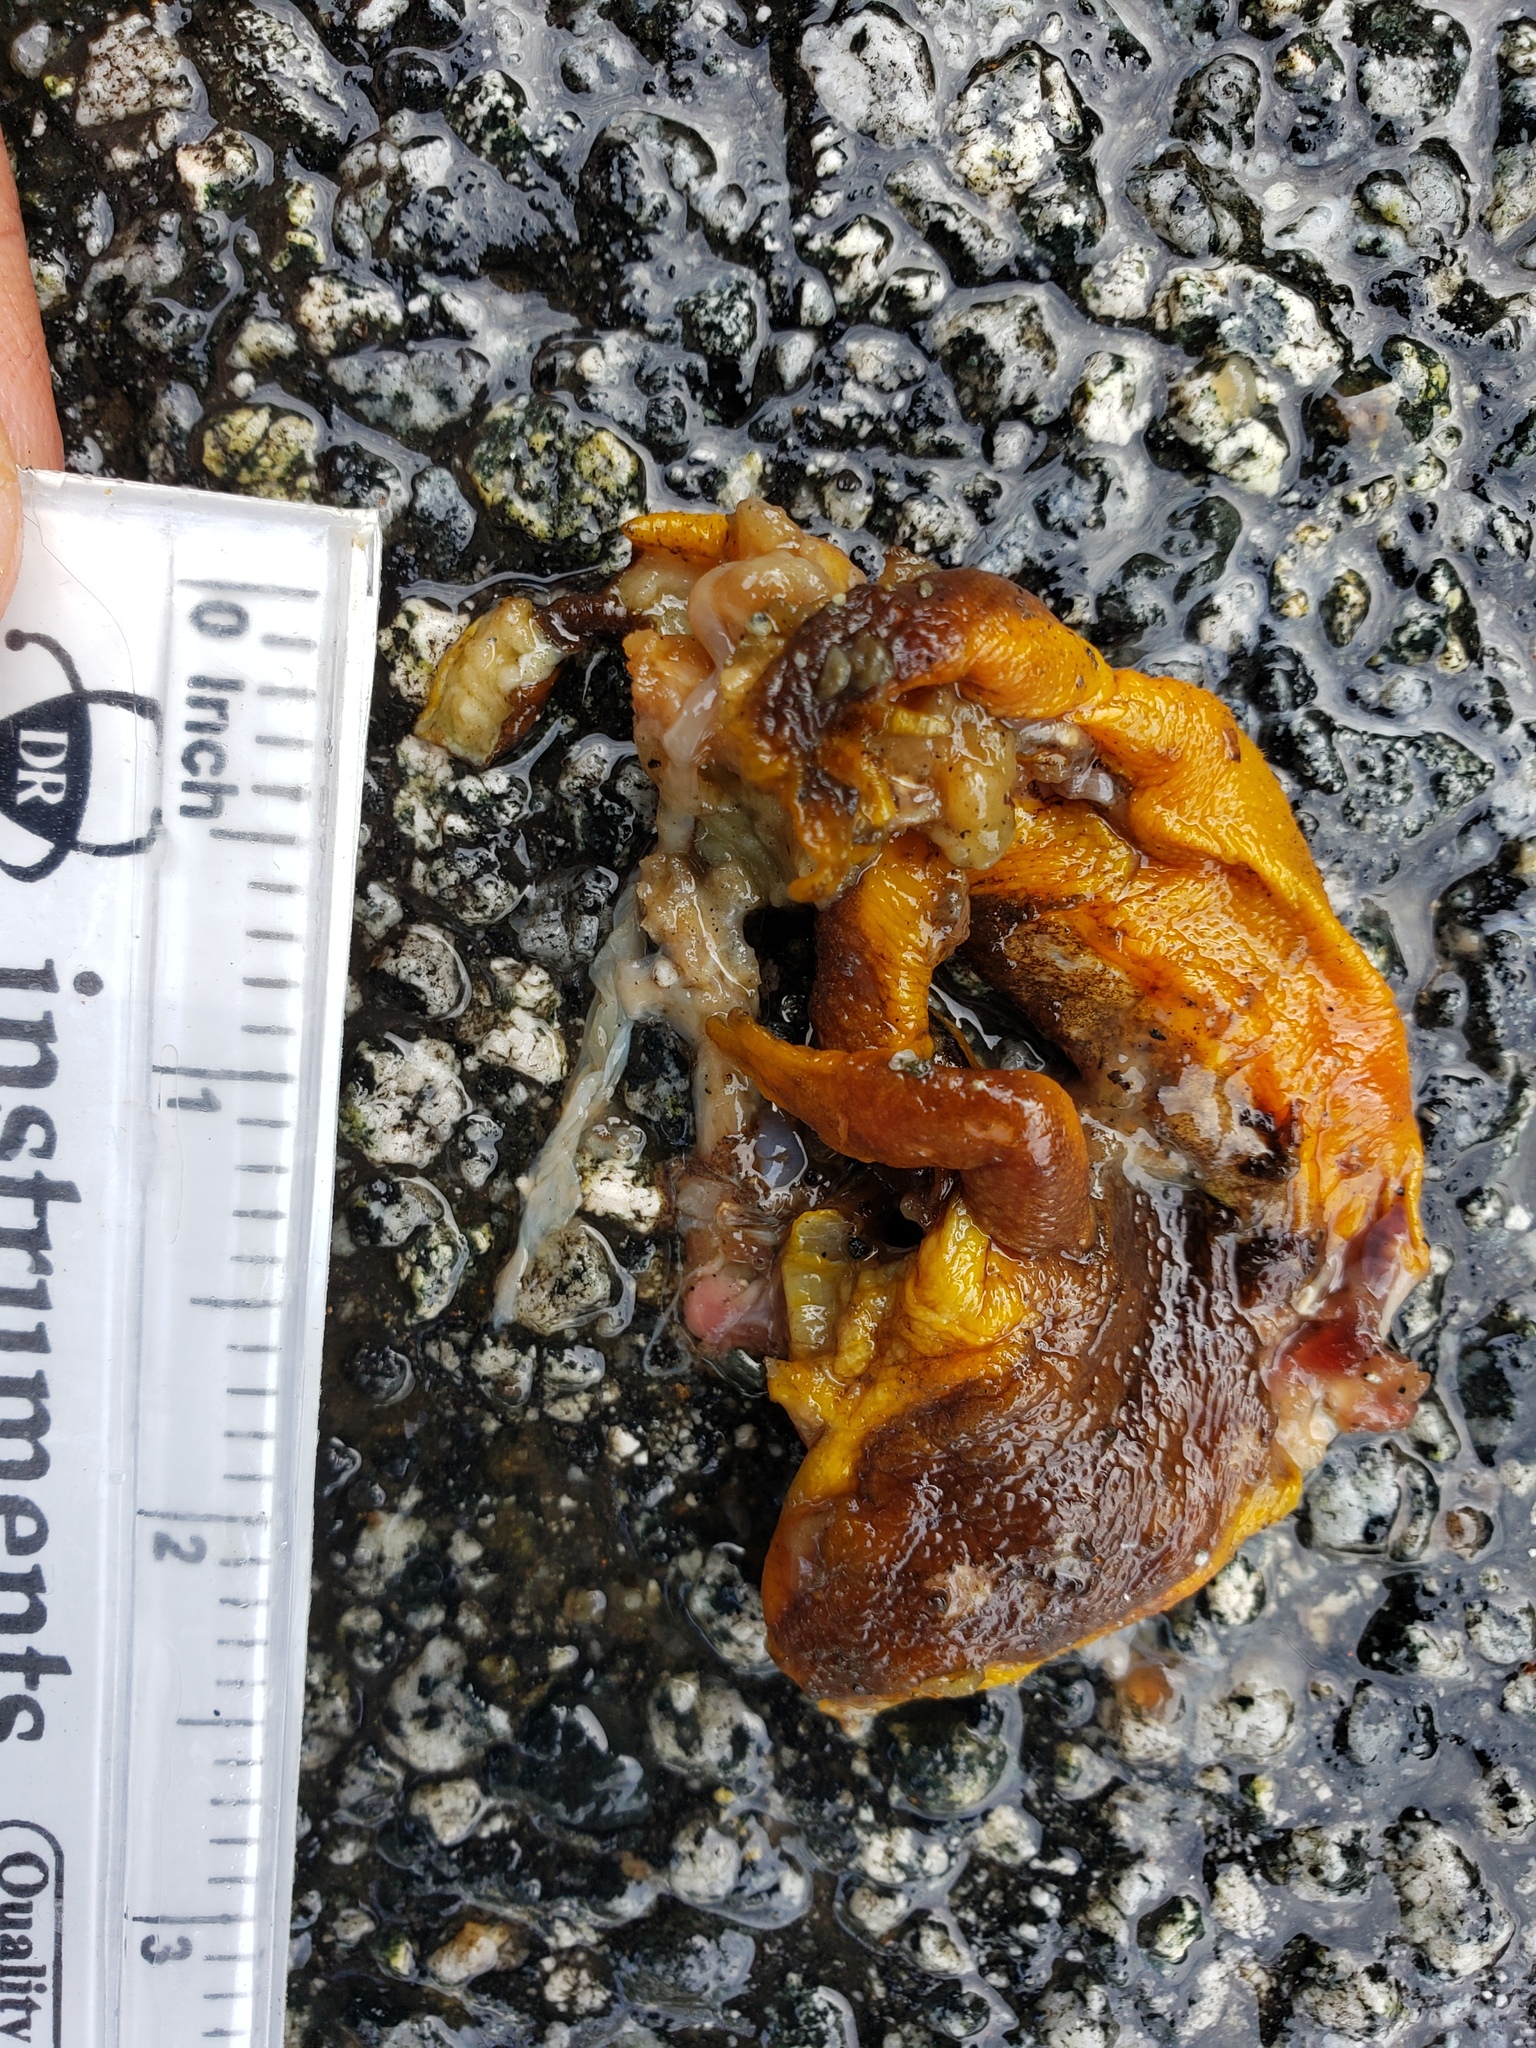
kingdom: Animalia
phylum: Chordata
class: Amphibia
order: Caudata
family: Salamandridae
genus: Taricha
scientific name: Taricha
